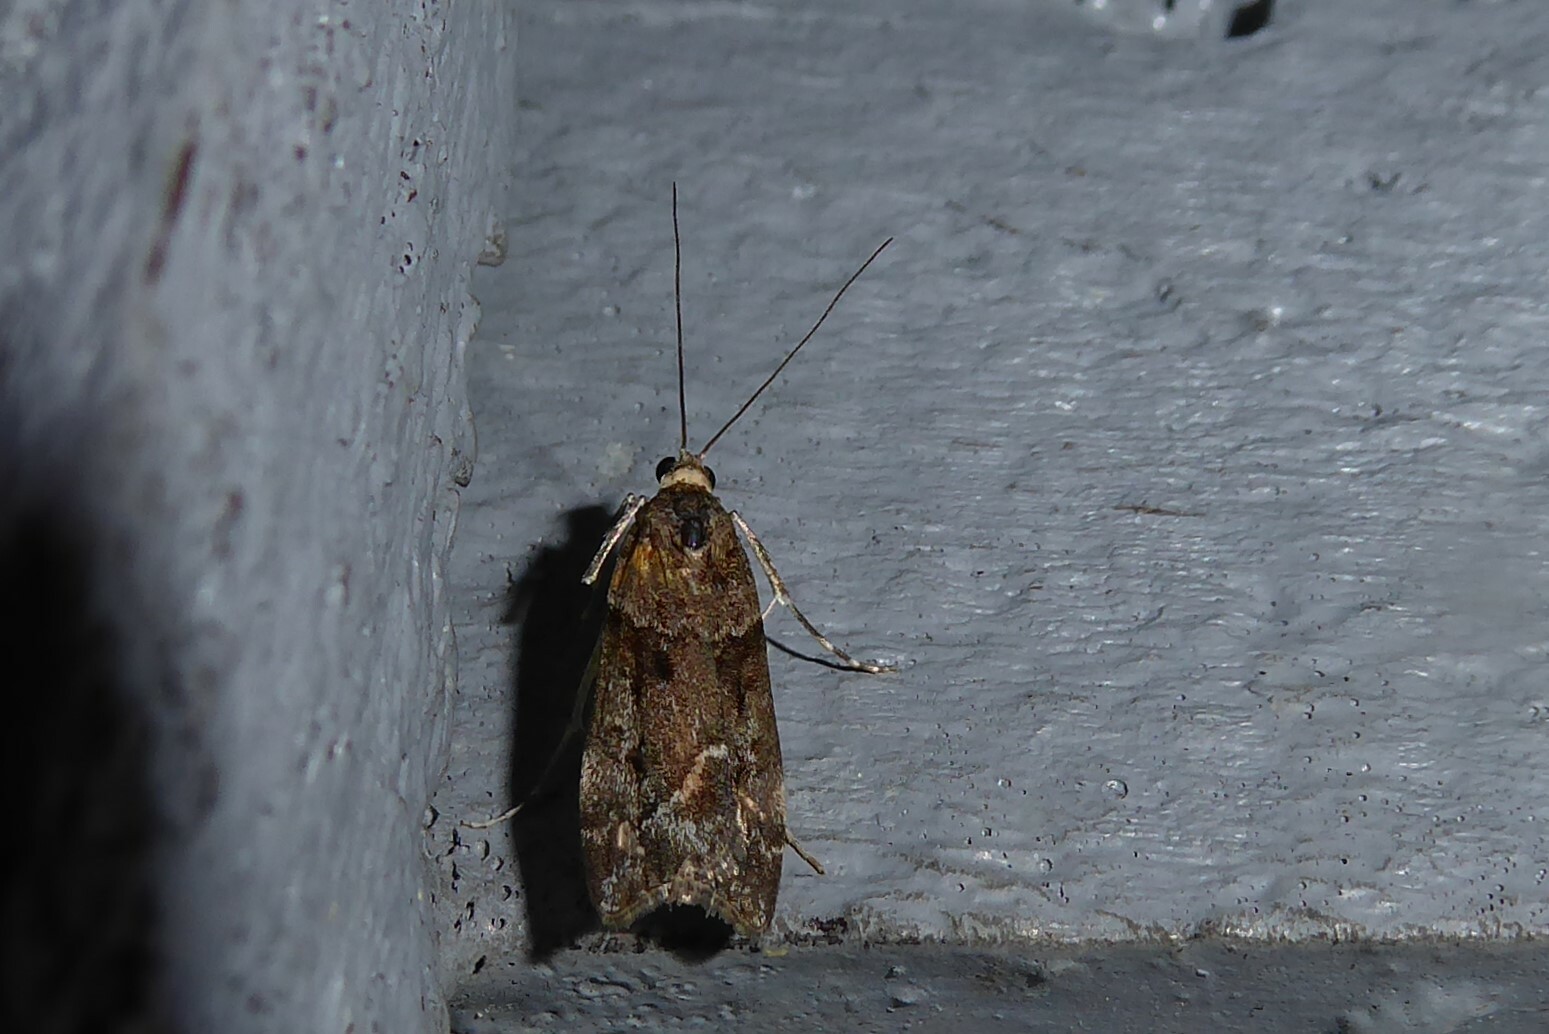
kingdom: Animalia
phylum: Arthropoda
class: Insecta
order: Lepidoptera
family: Crambidae
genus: Eudonia
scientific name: Eudonia submarginalis
